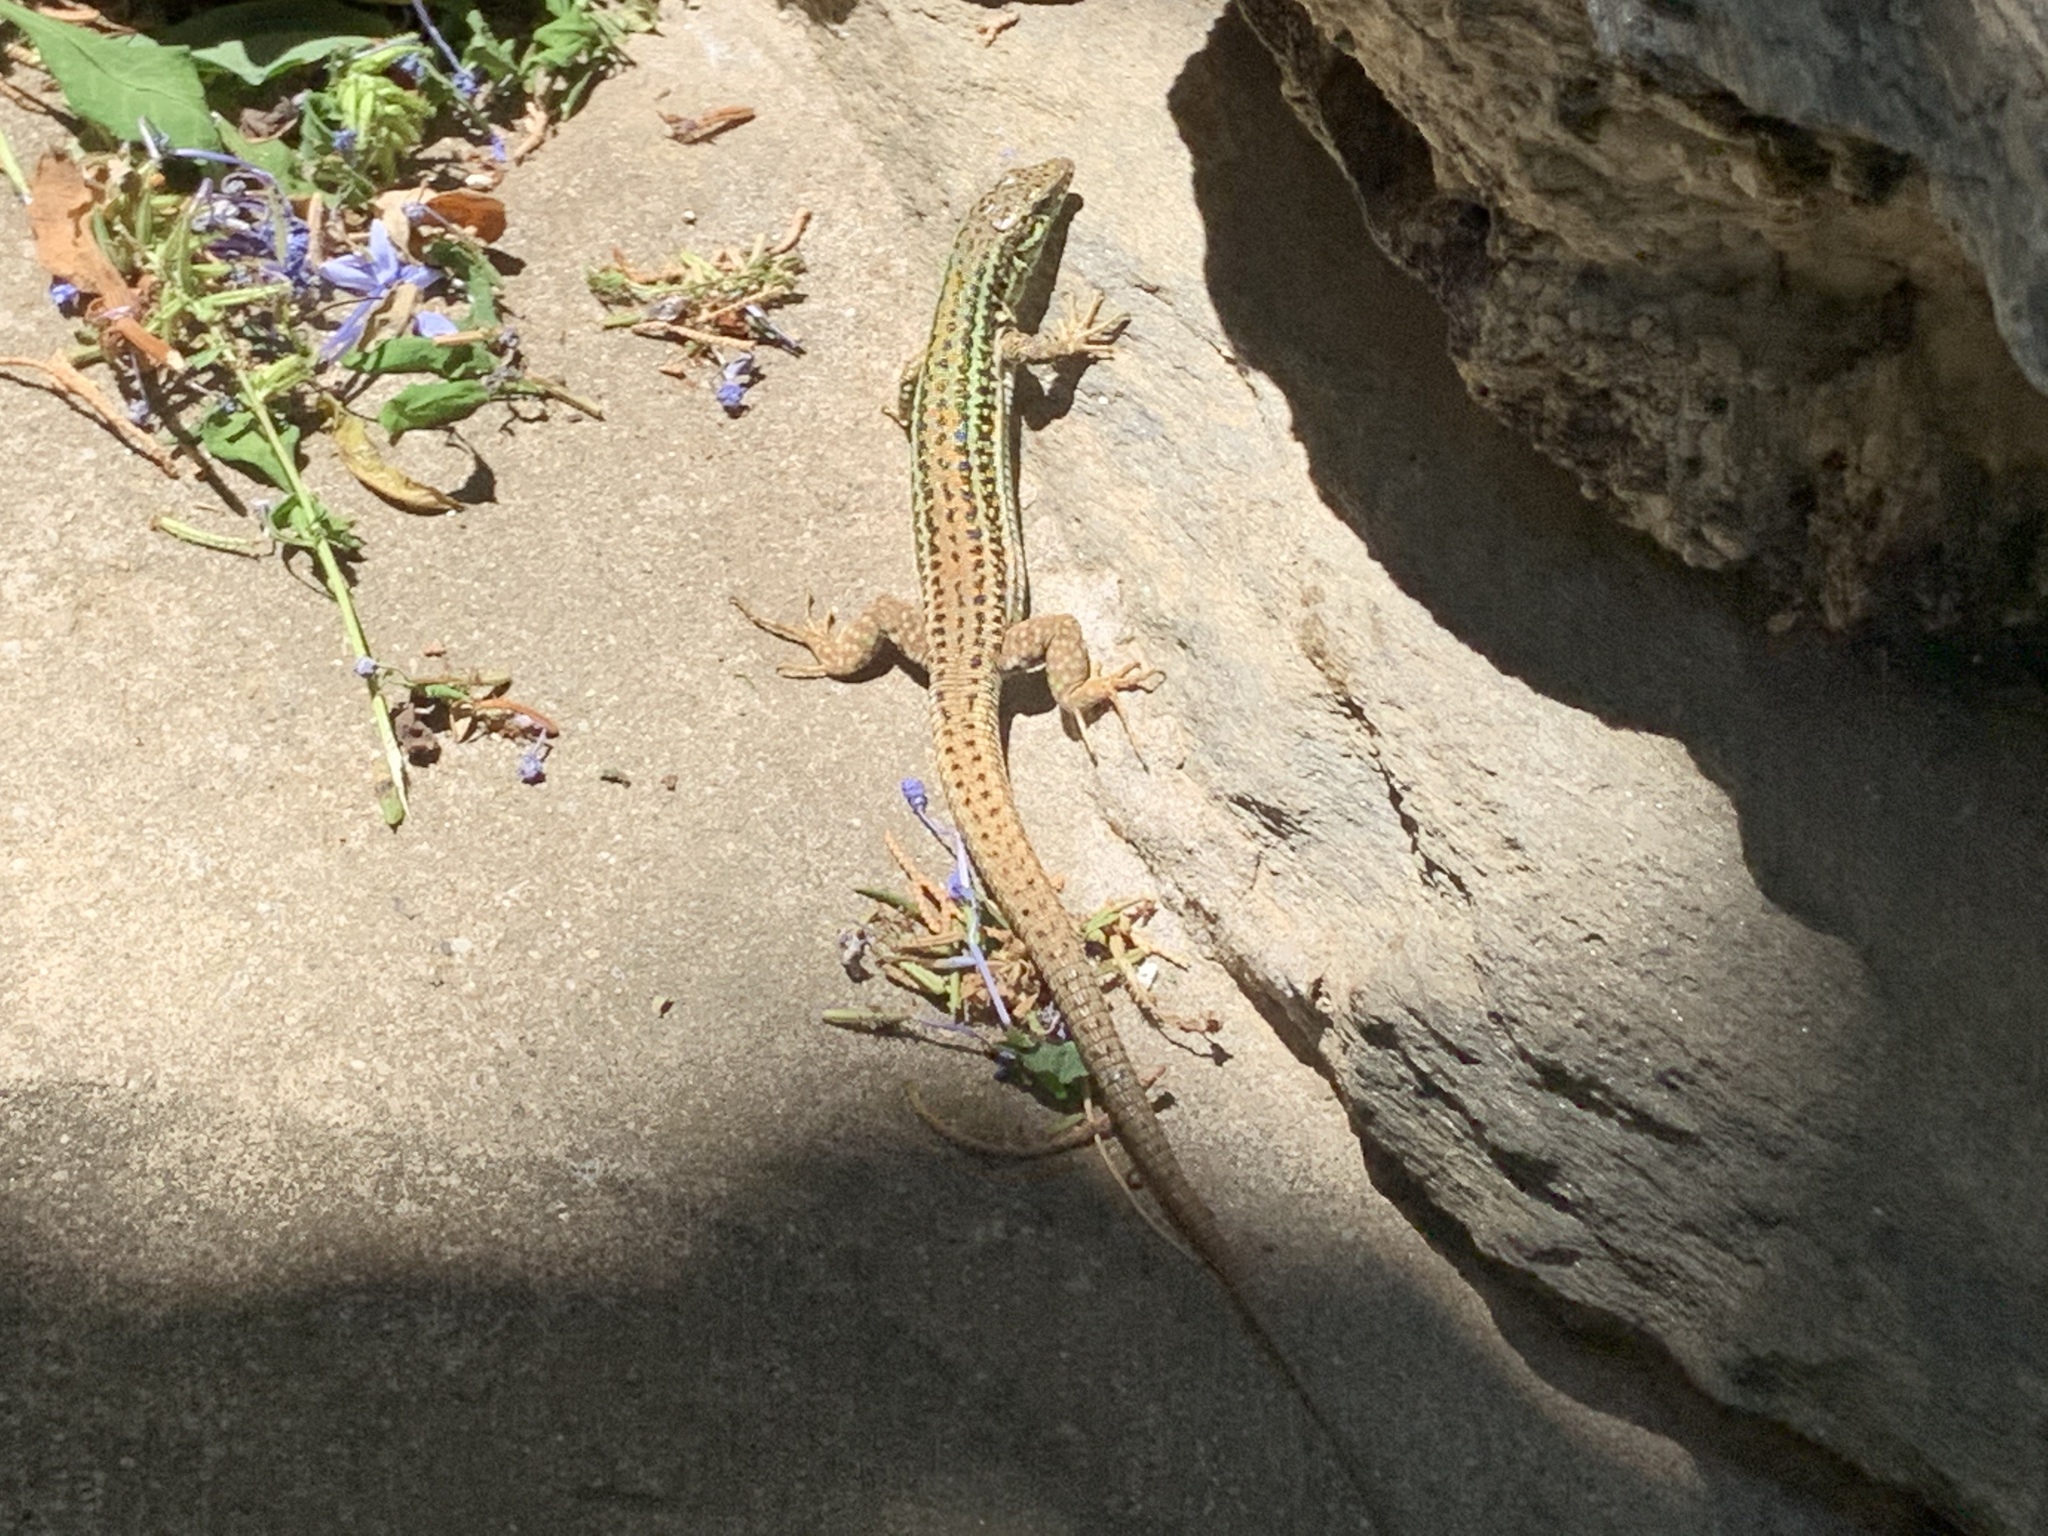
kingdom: Animalia
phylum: Chordata
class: Squamata
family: Lacertidae
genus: Podarcis
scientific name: Podarcis erhardii
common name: Erhard's wall lizard
